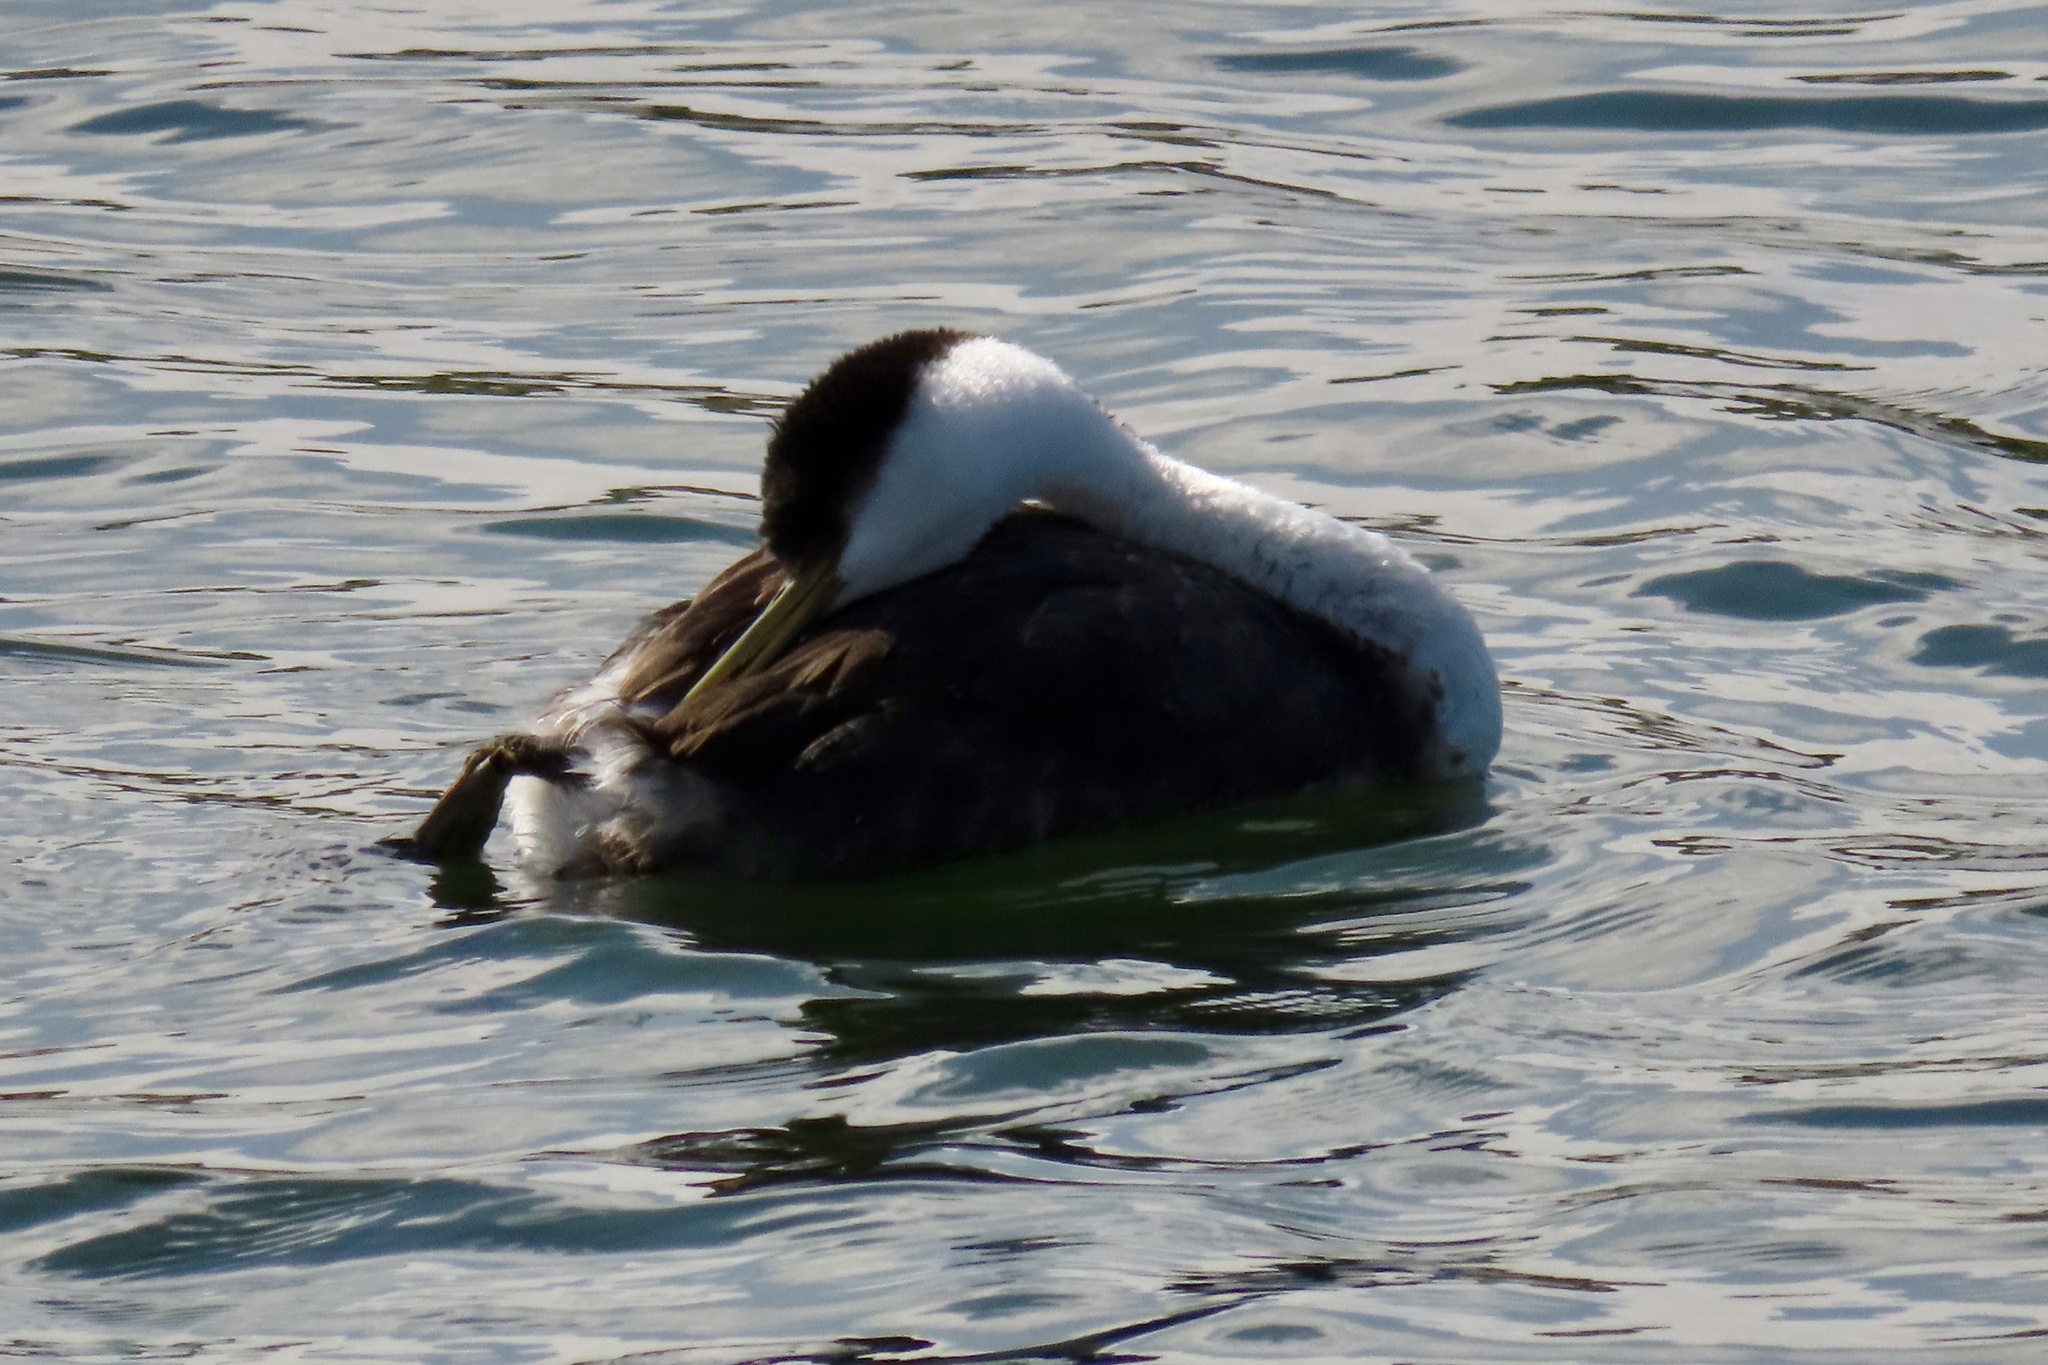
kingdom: Animalia
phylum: Chordata
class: Aves
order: Podicipediformes
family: Podicipedidae
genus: Aechmophorus
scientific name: Aechmophorus occidentalis
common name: Western grebe
